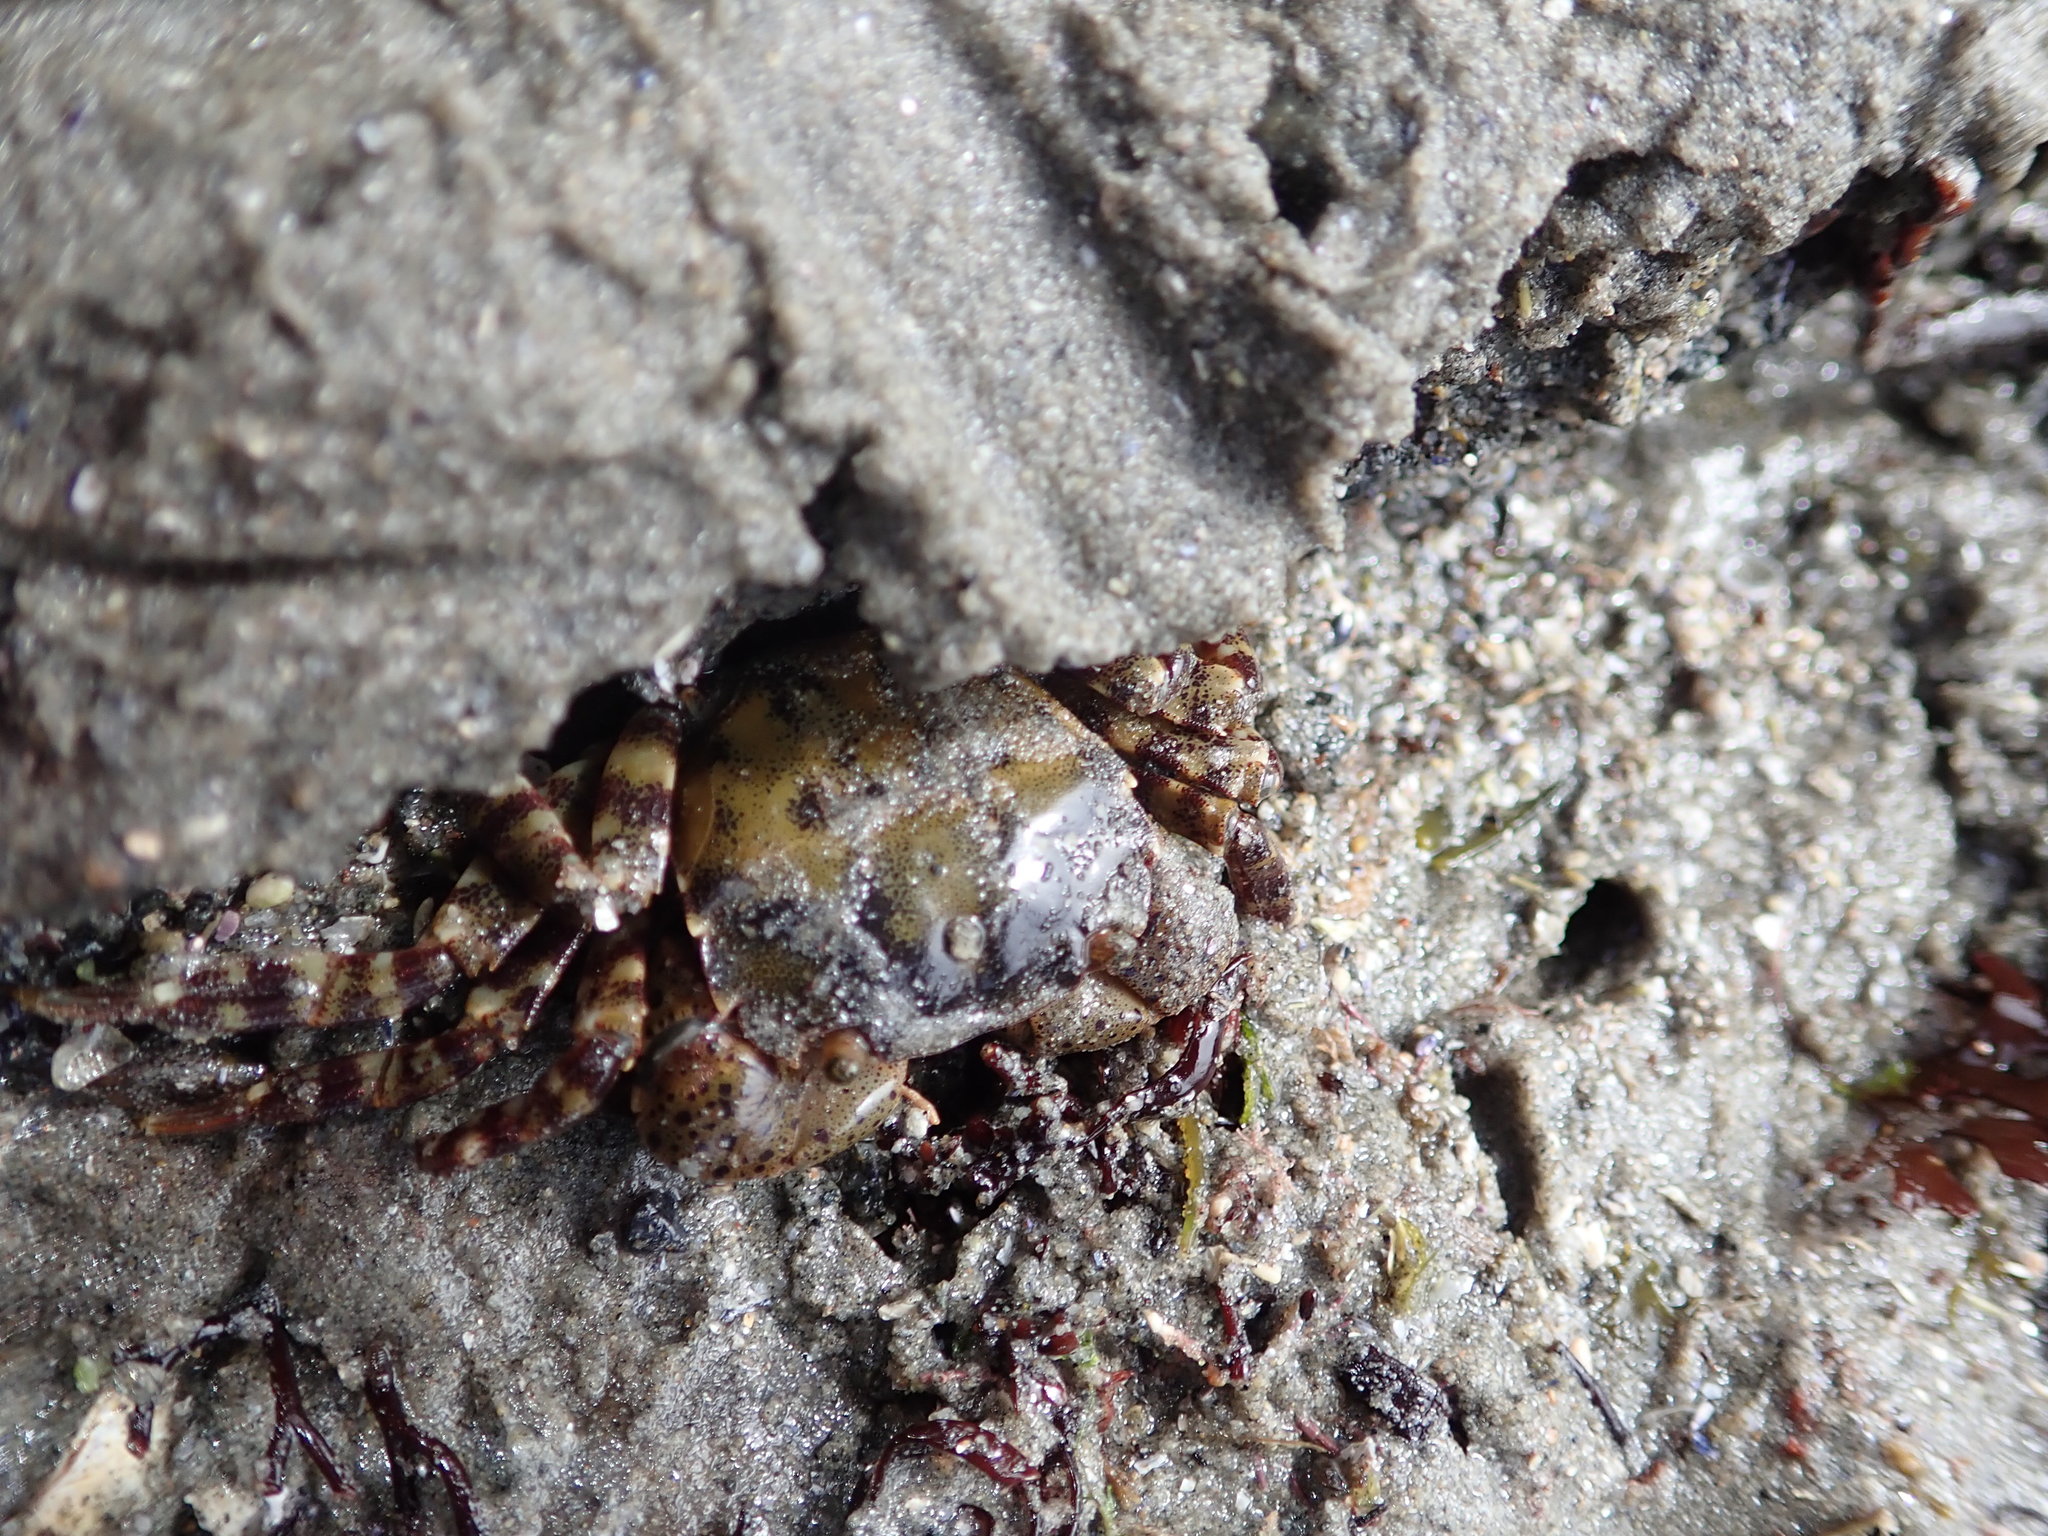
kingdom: Animalia
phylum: Arthropoda
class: Malacostraca
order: Decapoda
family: Varunidae
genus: Hemigrapsus
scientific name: Hemigrapsus sanguineus
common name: Asian shore crab
